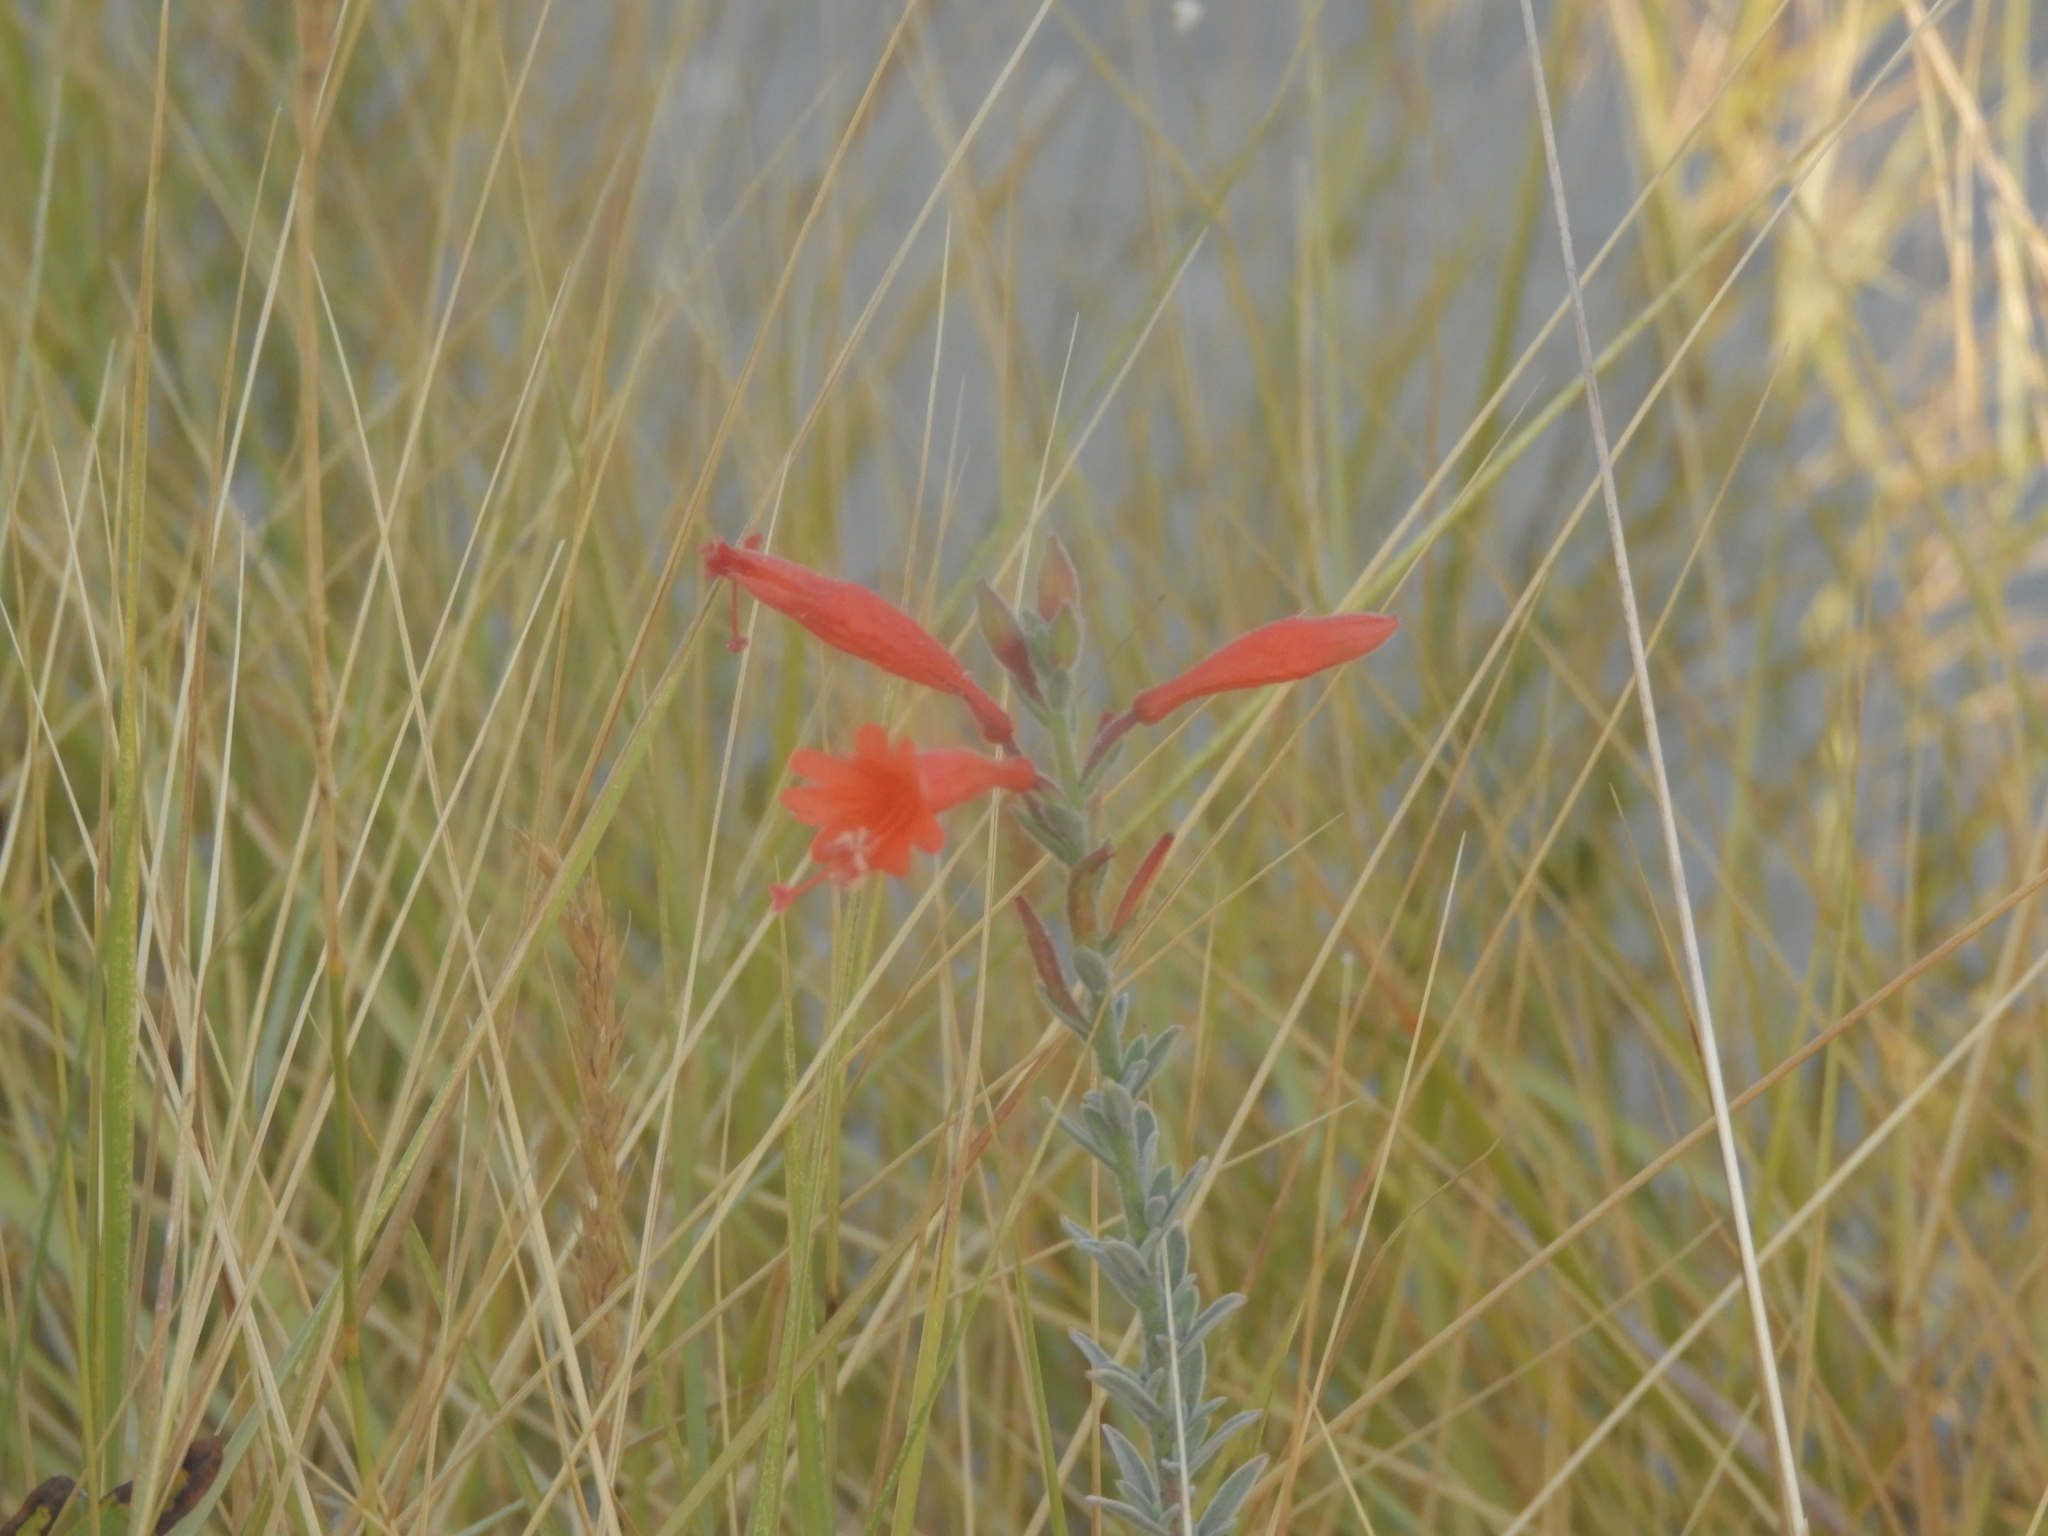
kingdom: Plantae
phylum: Tracheophyta
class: Magnoliopsida
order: Myrtales
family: Onagraceae
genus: Epilobium
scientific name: Epilobium canum
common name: California-fuchsia
